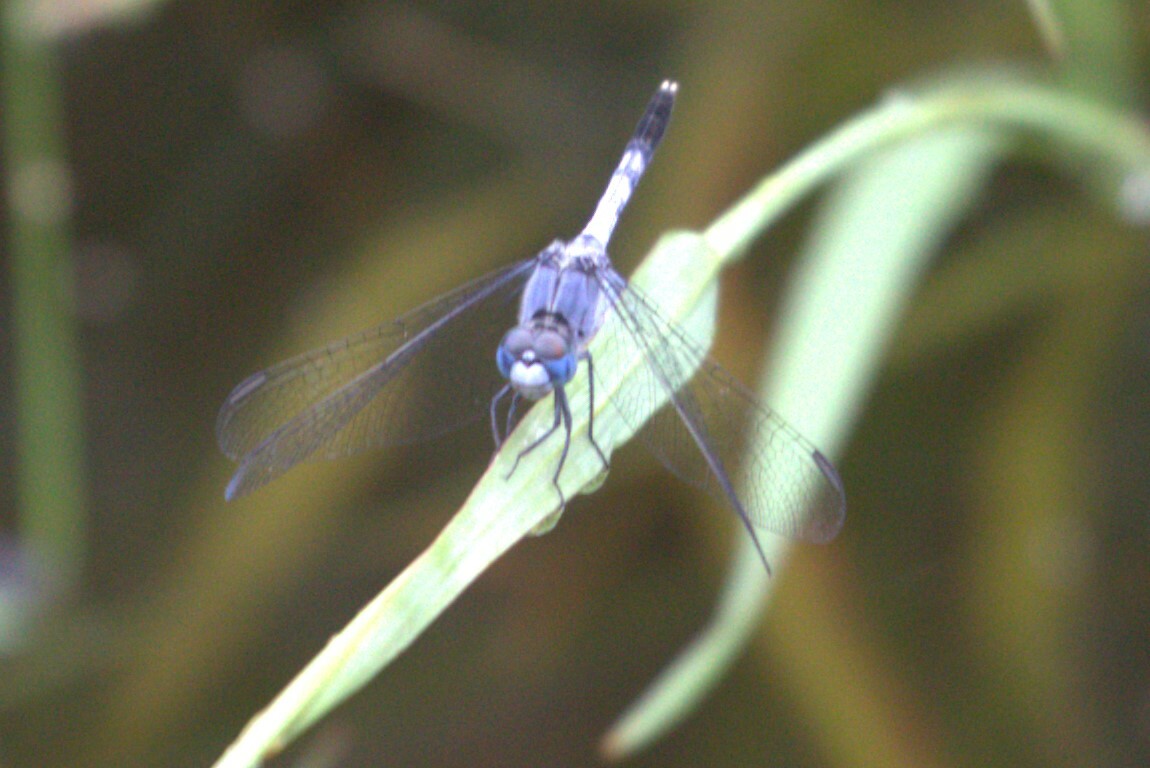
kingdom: Animalia
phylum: Arthropoda
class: Insecta
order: Odonata
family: Libellulidae
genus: Diplacodes
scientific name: Diplacodes trivialis
